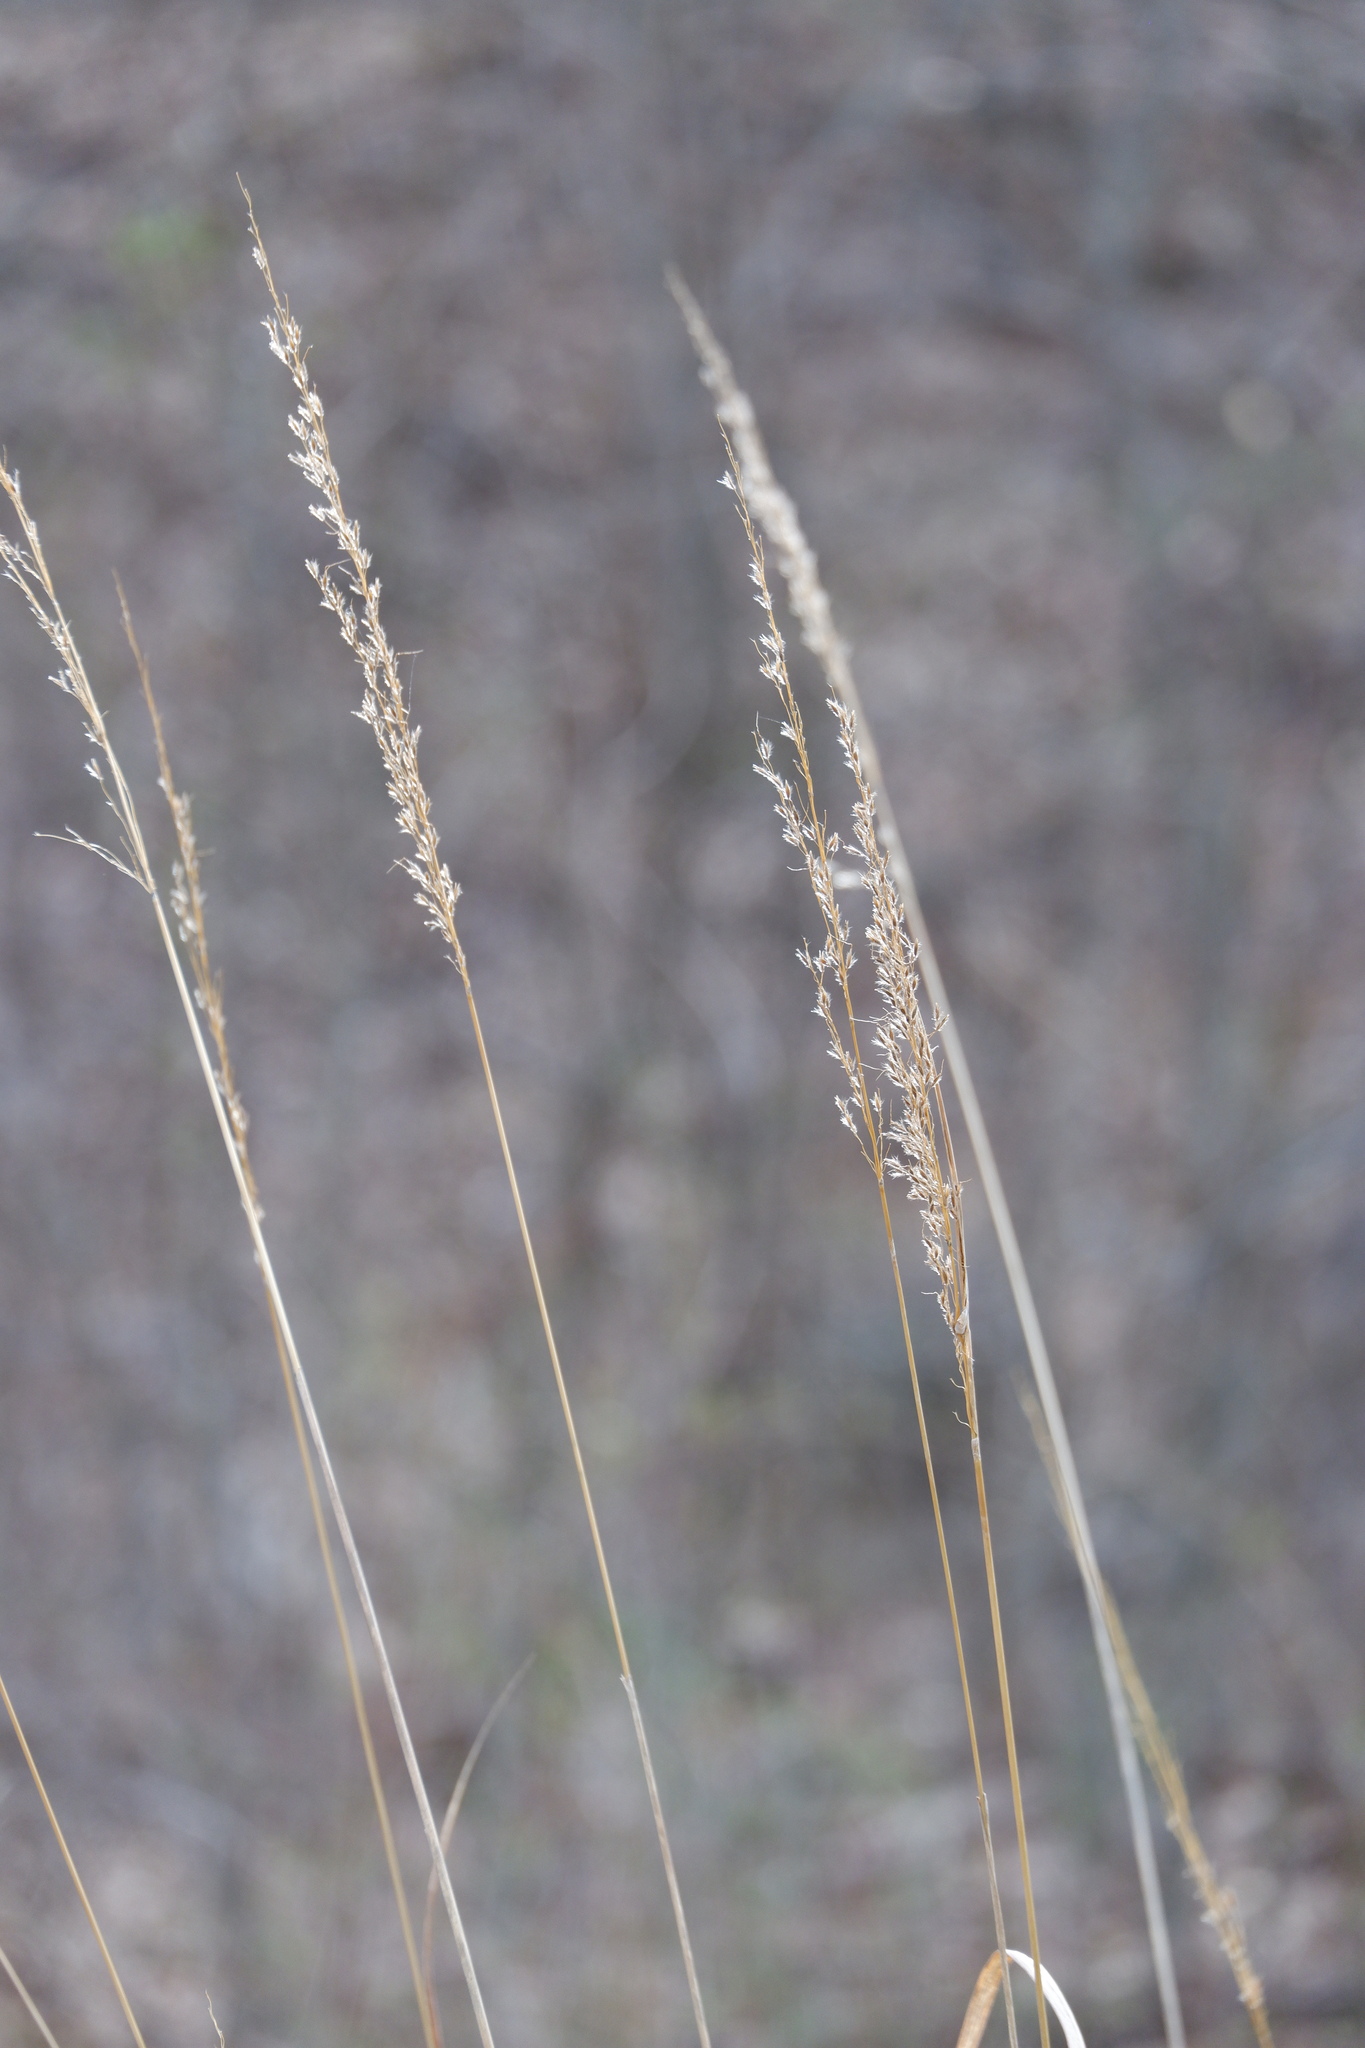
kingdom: Plantae
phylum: Tracheophyta
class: Liliopsida
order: Poales
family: Poaceae
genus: Sorghastrum
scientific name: Sorghastrum nutans
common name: Indian grass
